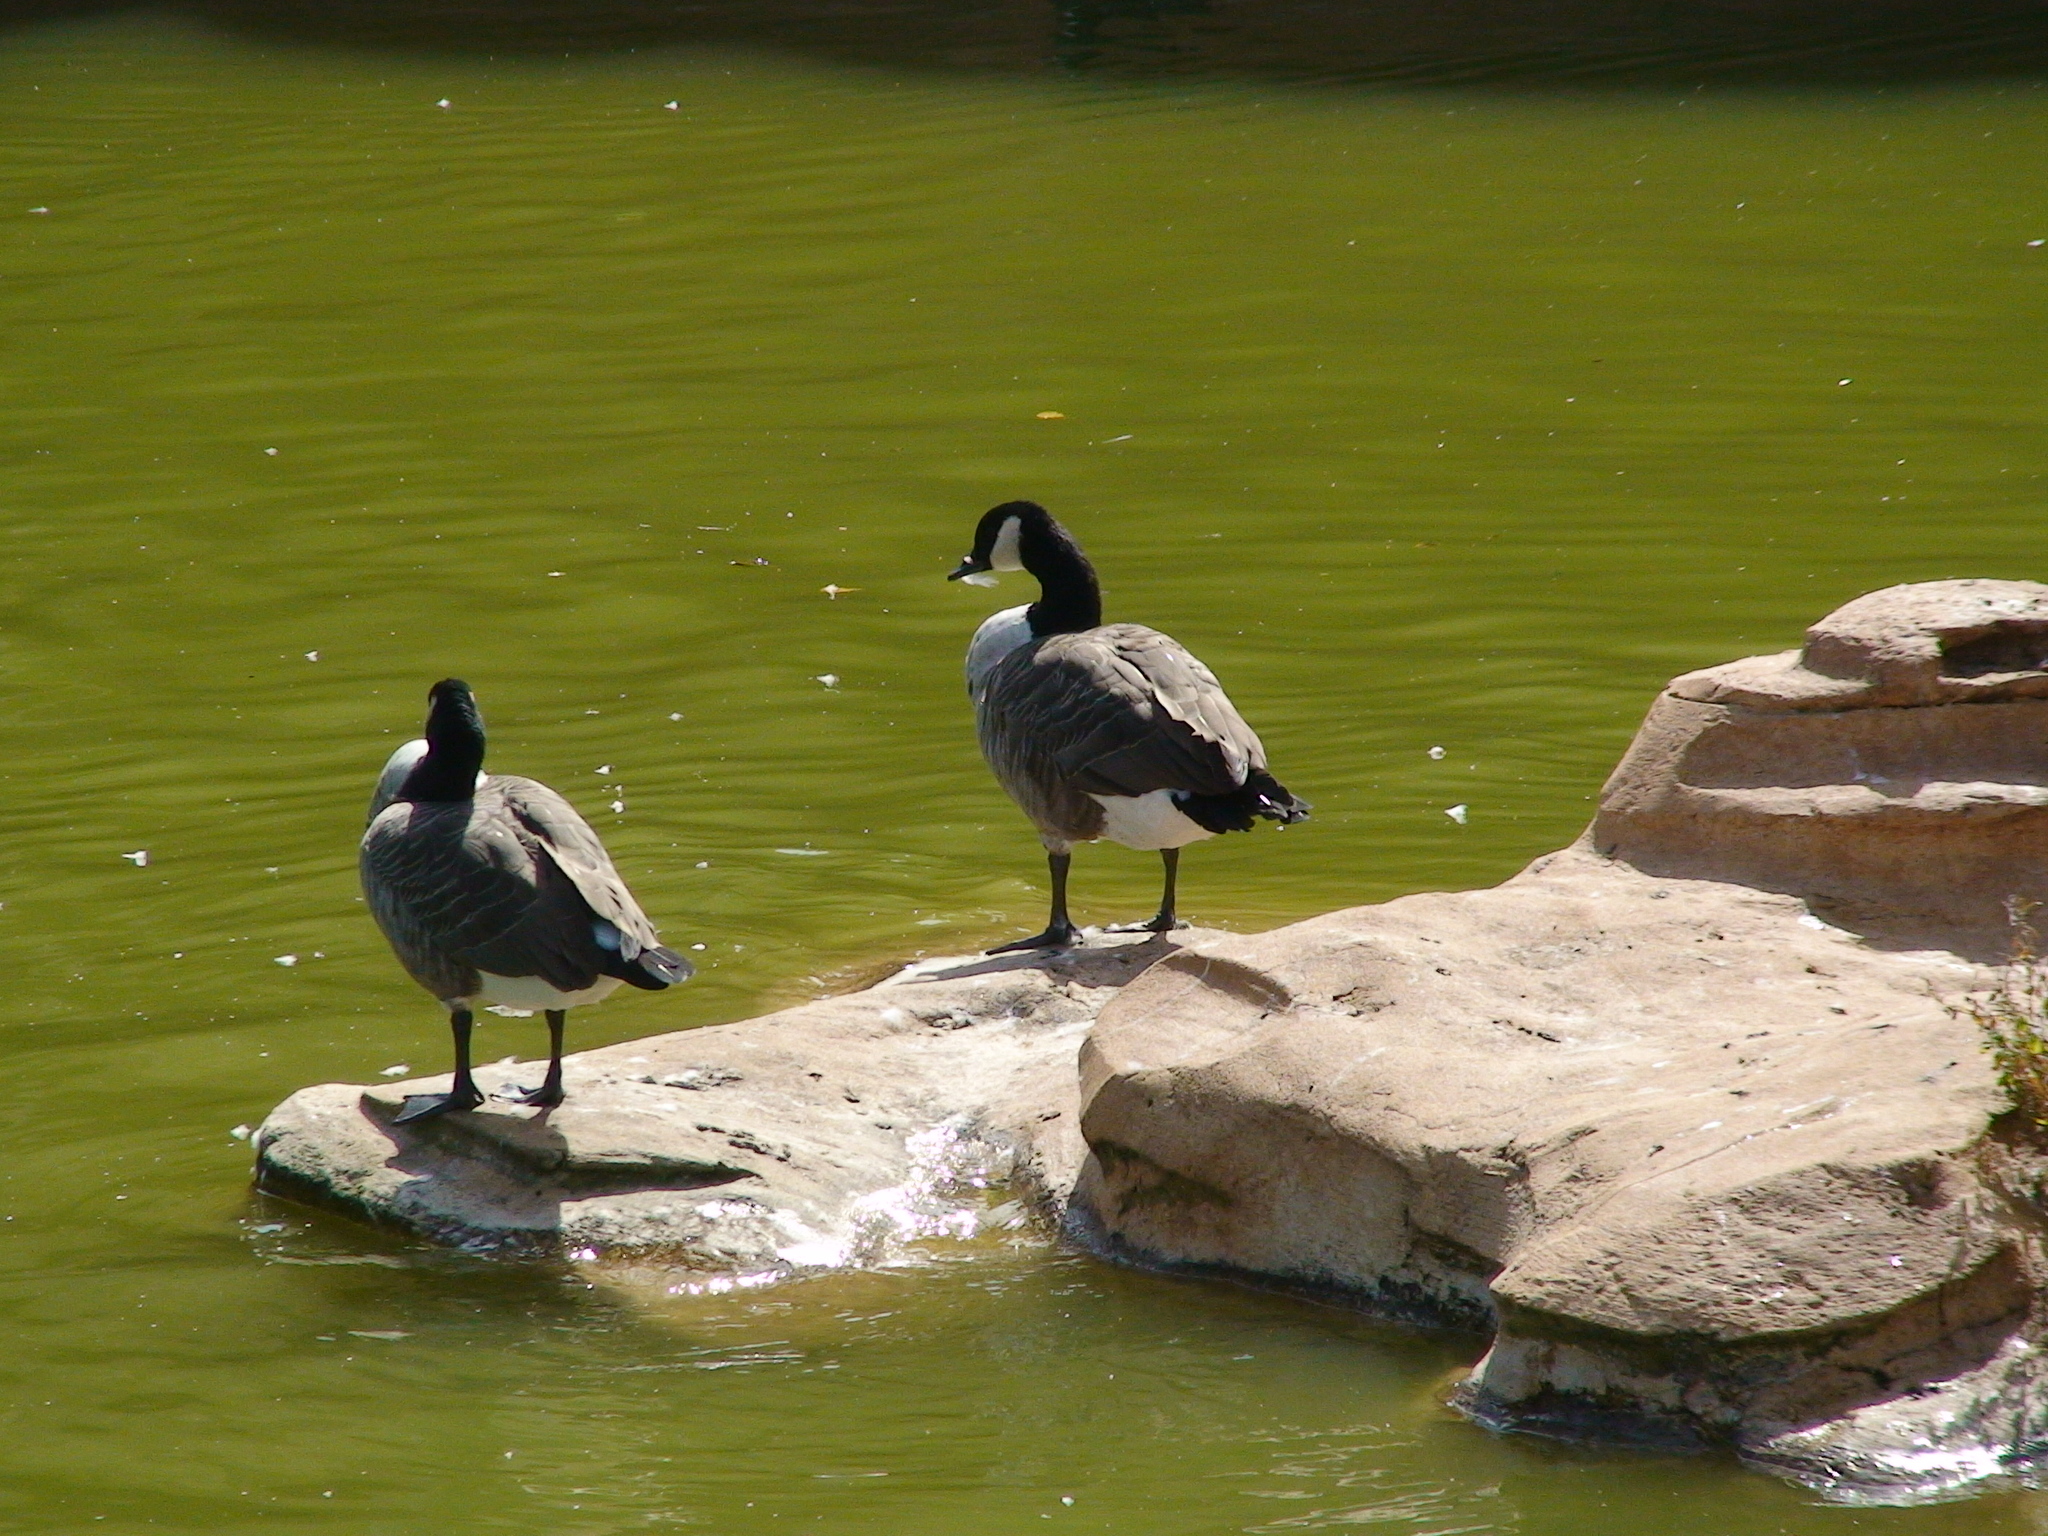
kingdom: Animalia
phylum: Chordata
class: Aves
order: Anseriformes
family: Anatidae
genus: Branta
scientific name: Branta canadensis
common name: Canada goose
